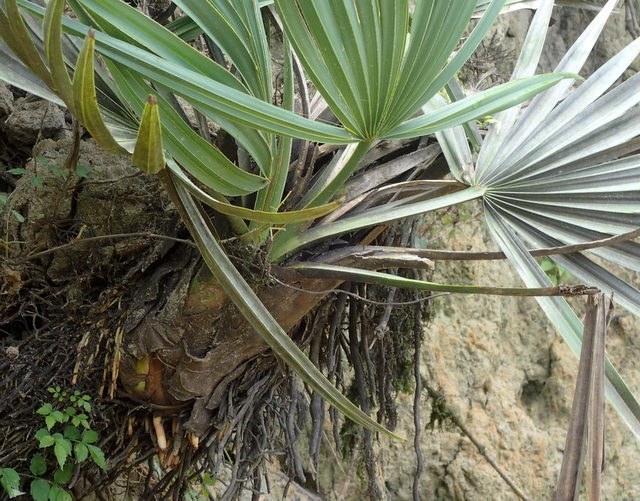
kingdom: Plantae
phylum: Tracheophyta
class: Liliopsida
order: Arecales
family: Arecaceae
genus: Sabal
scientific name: Sabal minor
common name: Dwarf palmetto
